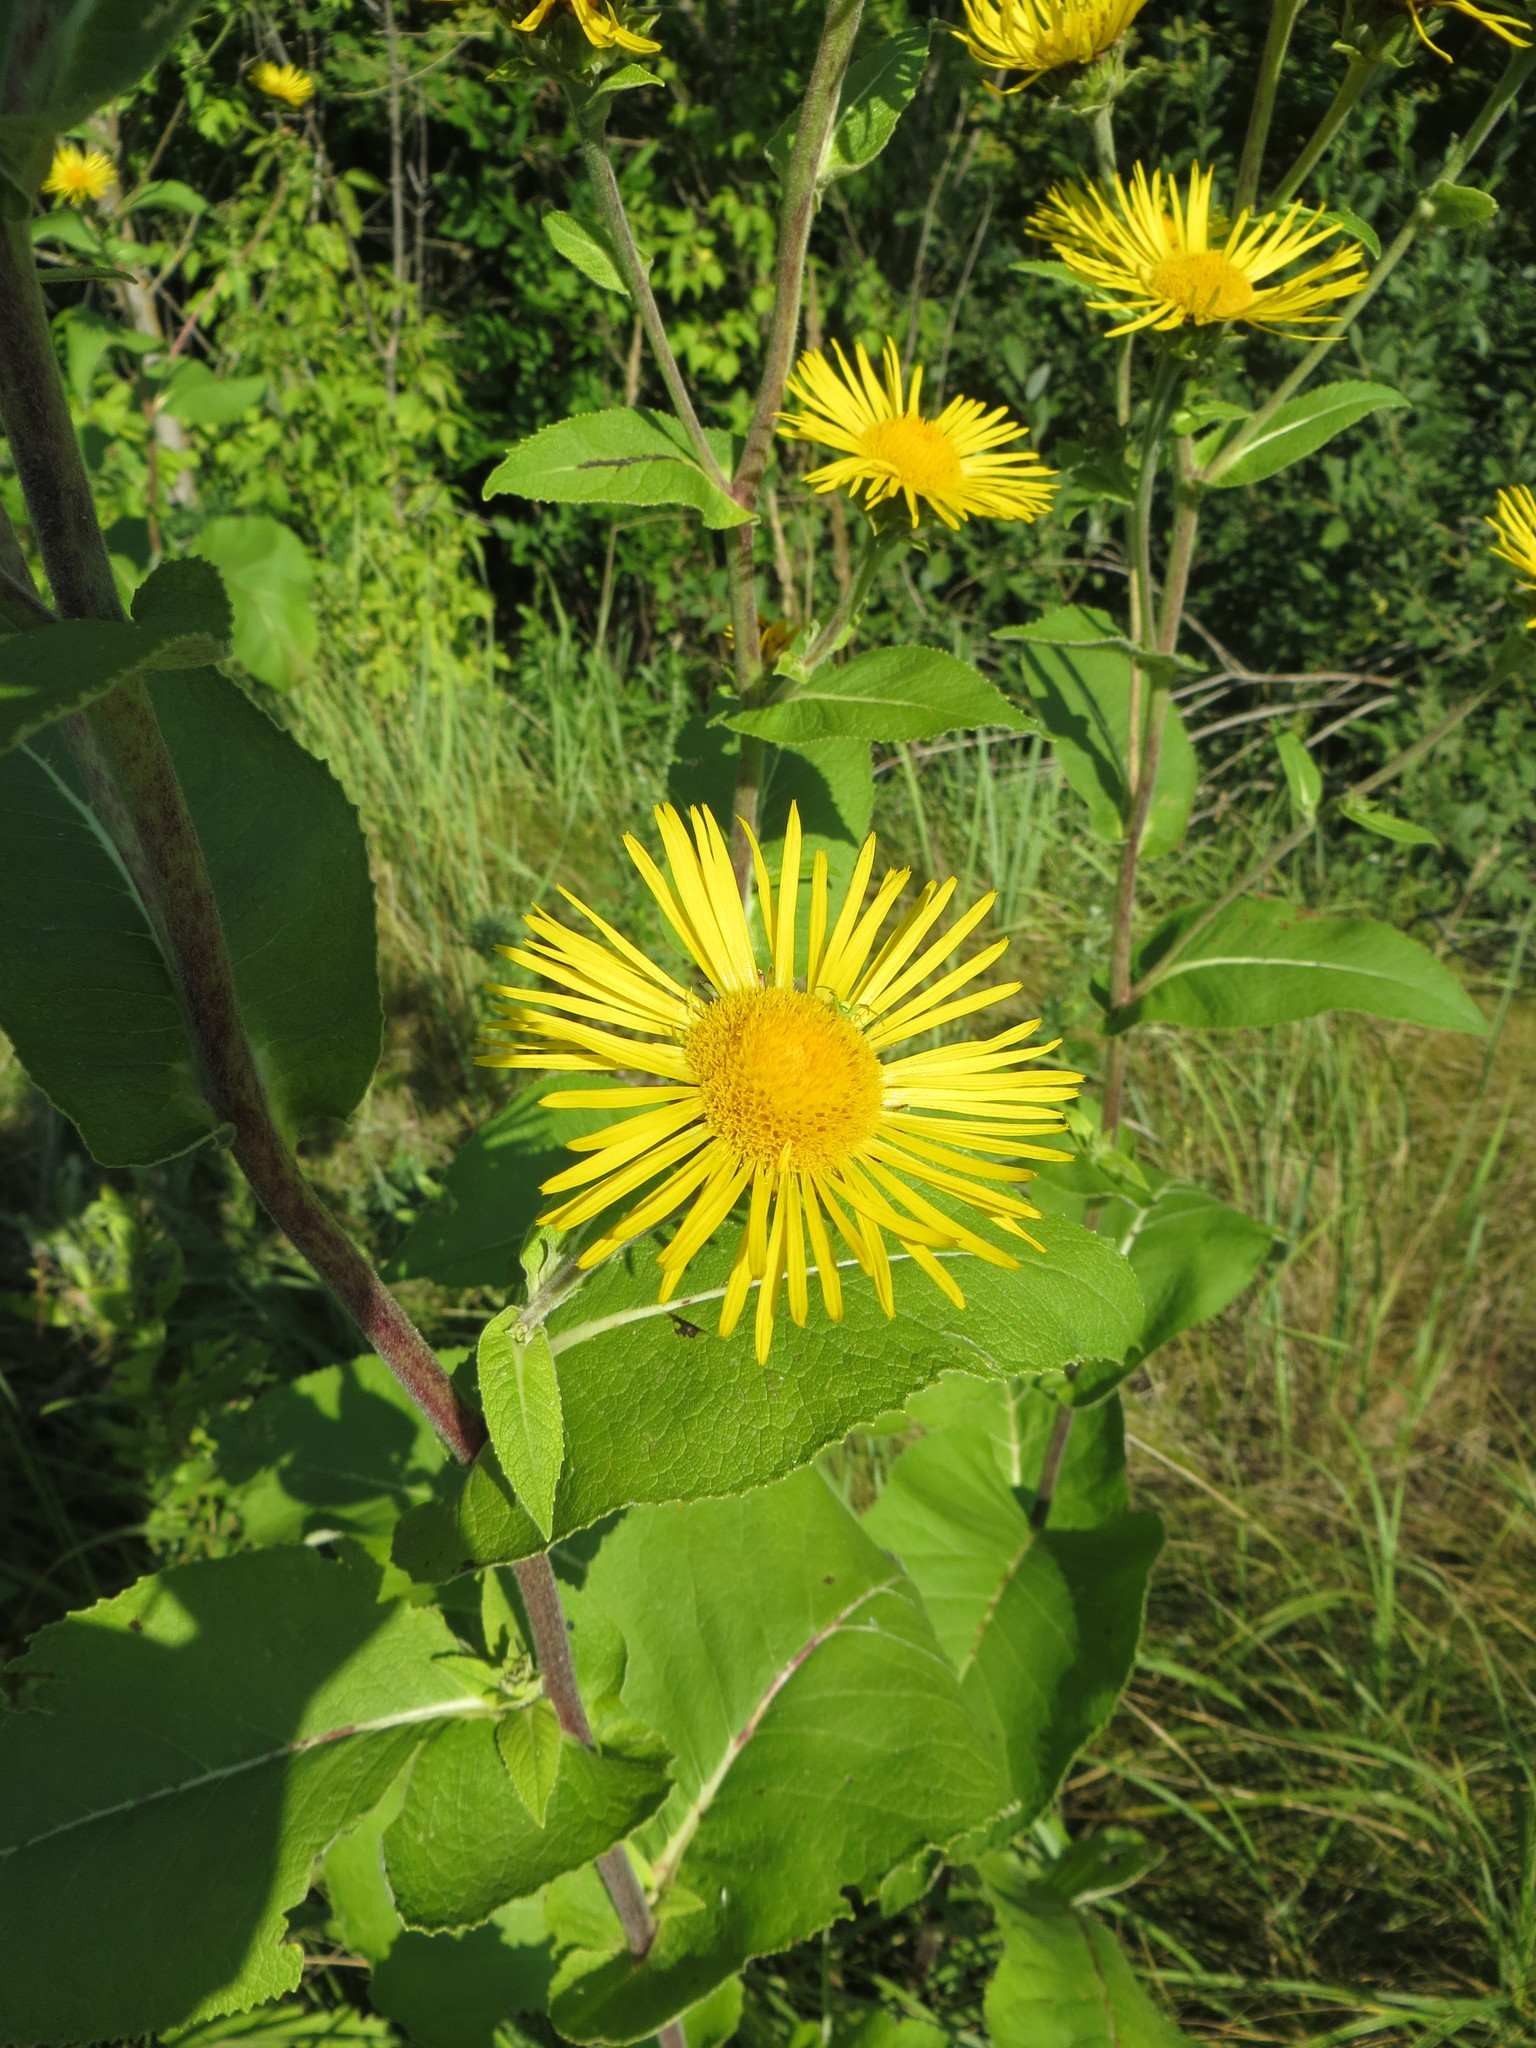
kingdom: Plantae
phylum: Tracheophyta
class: Magnoliopsida
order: Asterales
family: Asteraceae
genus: Inula
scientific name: Inula helenium
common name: Elecampane
